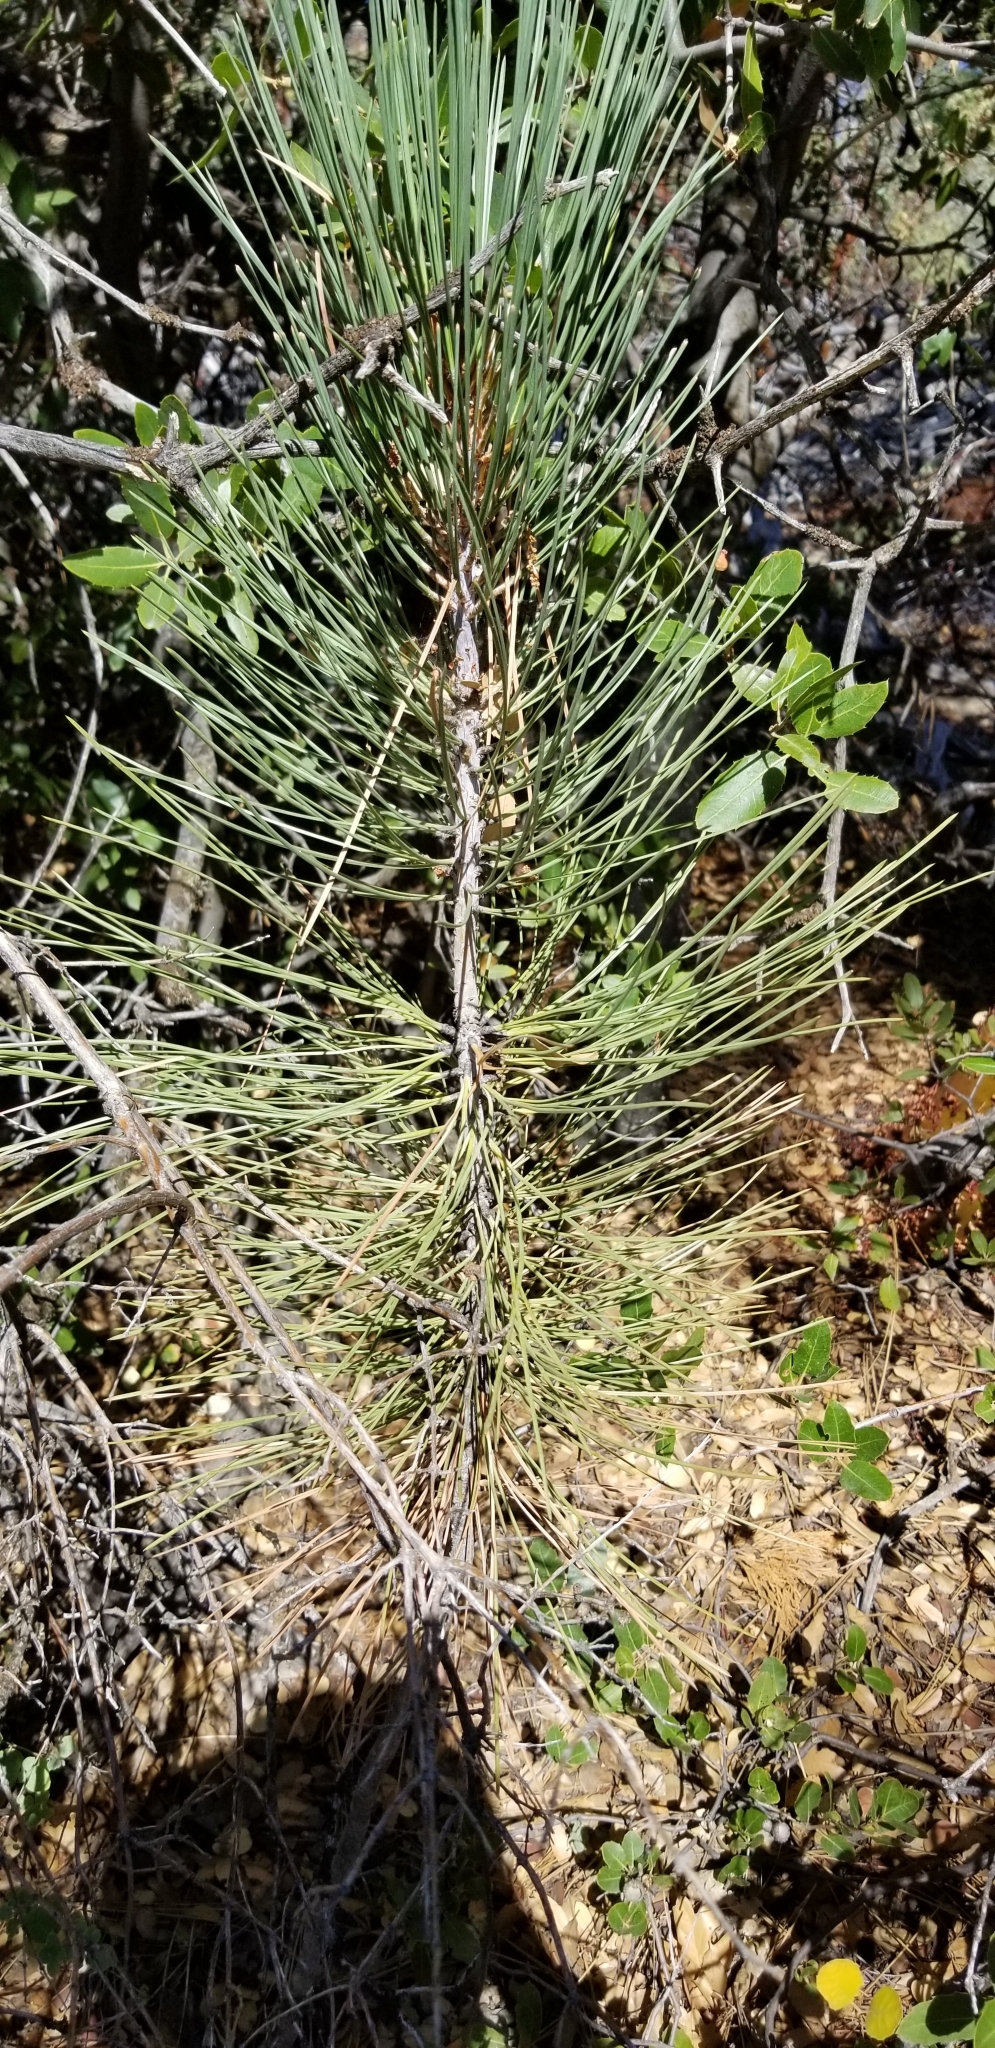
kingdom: Plantae
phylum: Tracheophyta
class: Pinopsida
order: Pinales
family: Pinaceae
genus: Pinus
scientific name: Pinus jeffreyi
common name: Jeffrey pine
